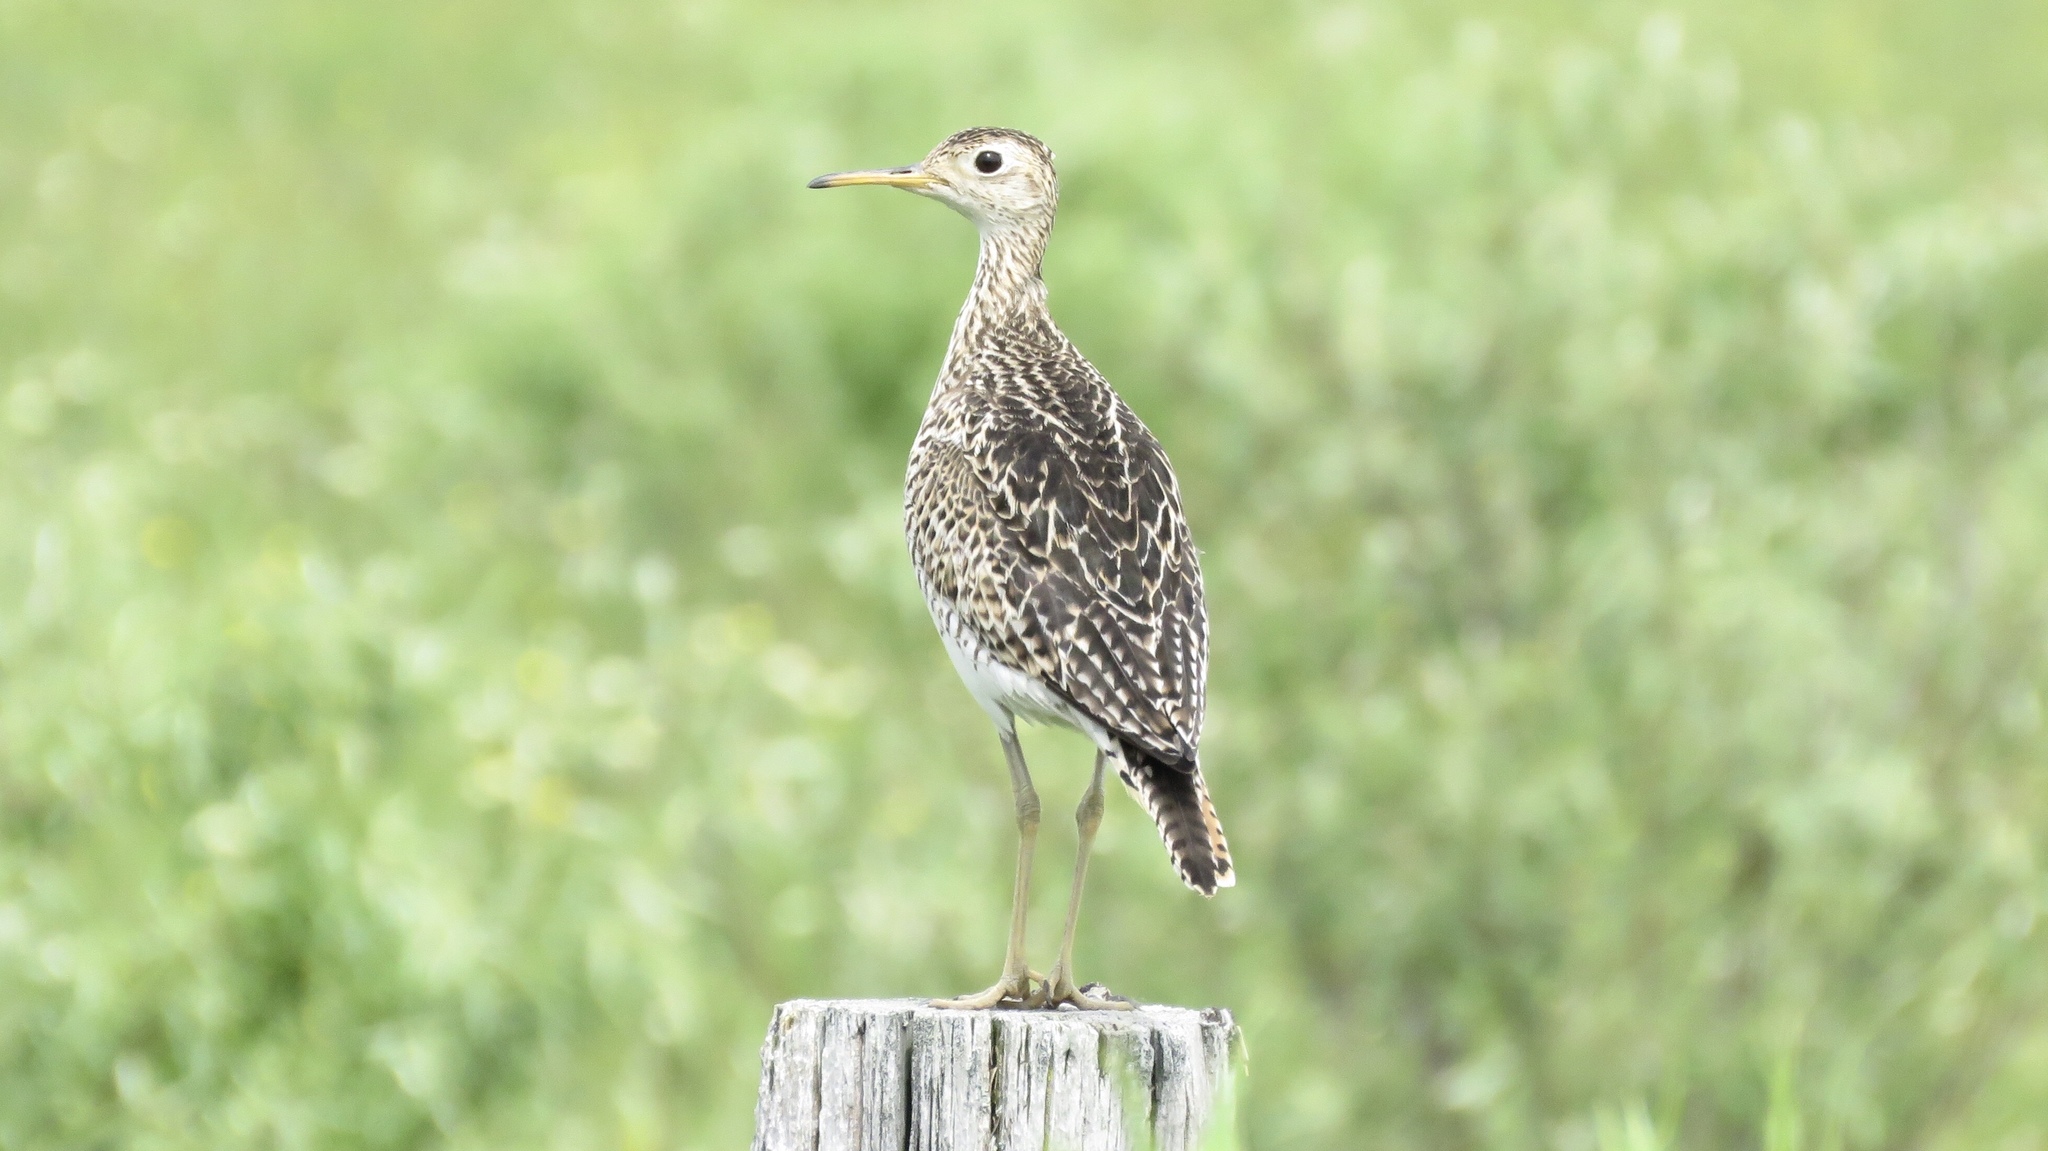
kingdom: Animalia
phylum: Chordata
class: Aves
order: Charadriiformes
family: Scolopacidae
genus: Bartramia
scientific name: Bartramia longicauda
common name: Upland sandpiper
